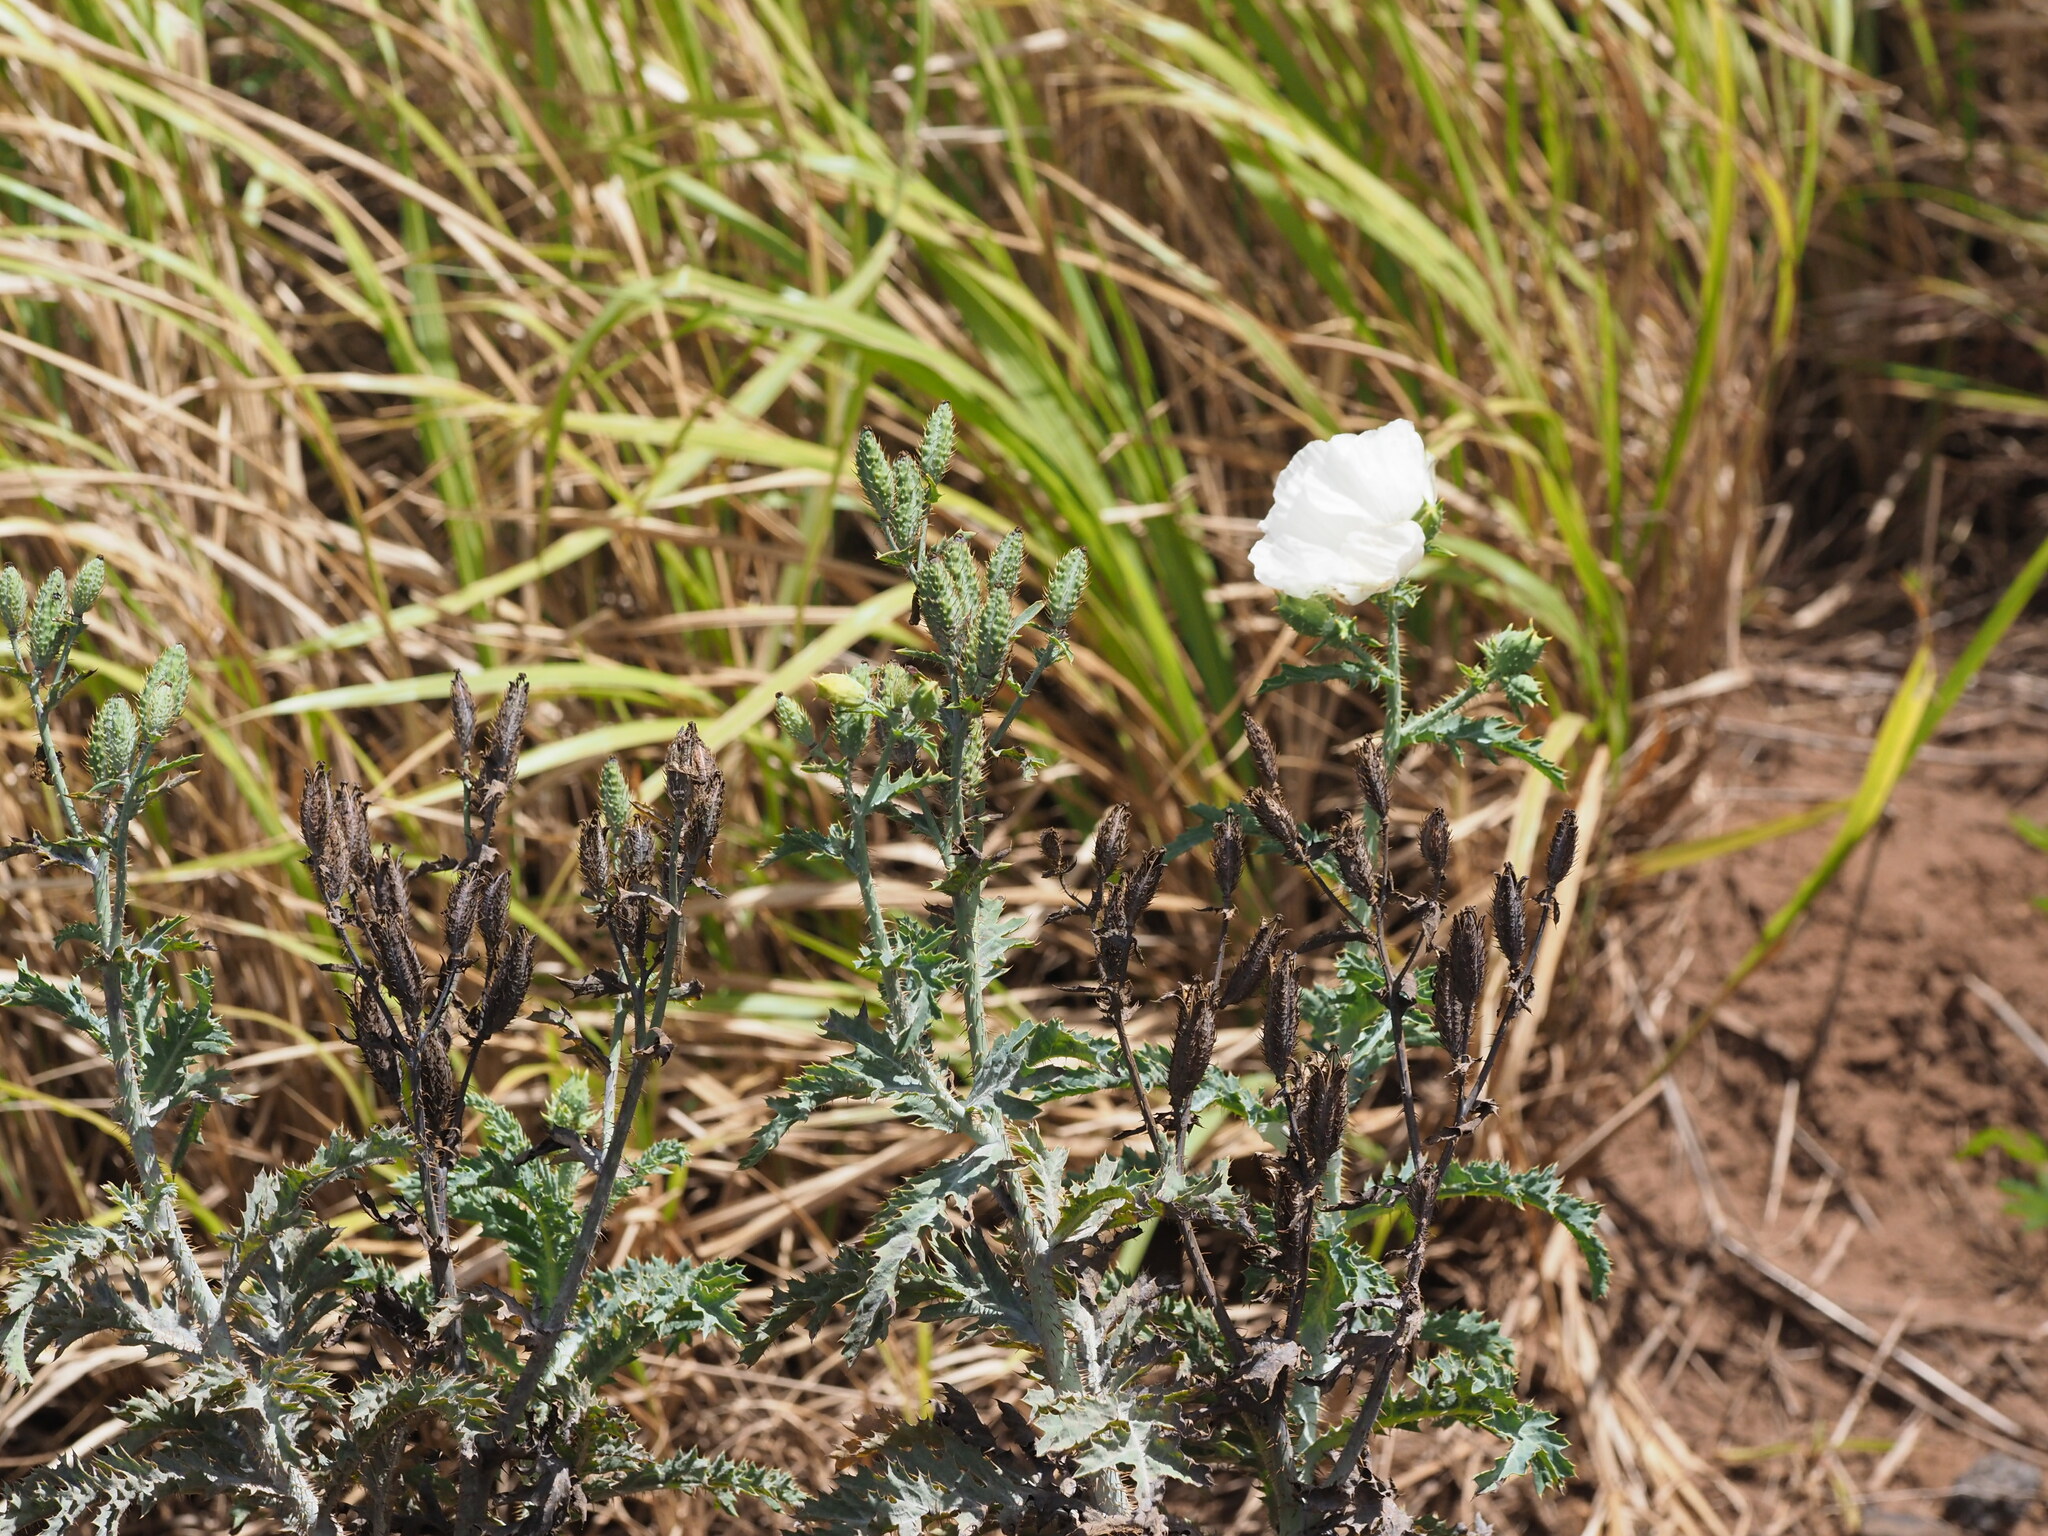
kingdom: Plantae
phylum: Tracheophyta
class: Magnoliopsida
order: Ranunculales
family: Papaveraceae
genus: Argemone
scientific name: Argemone glauca
